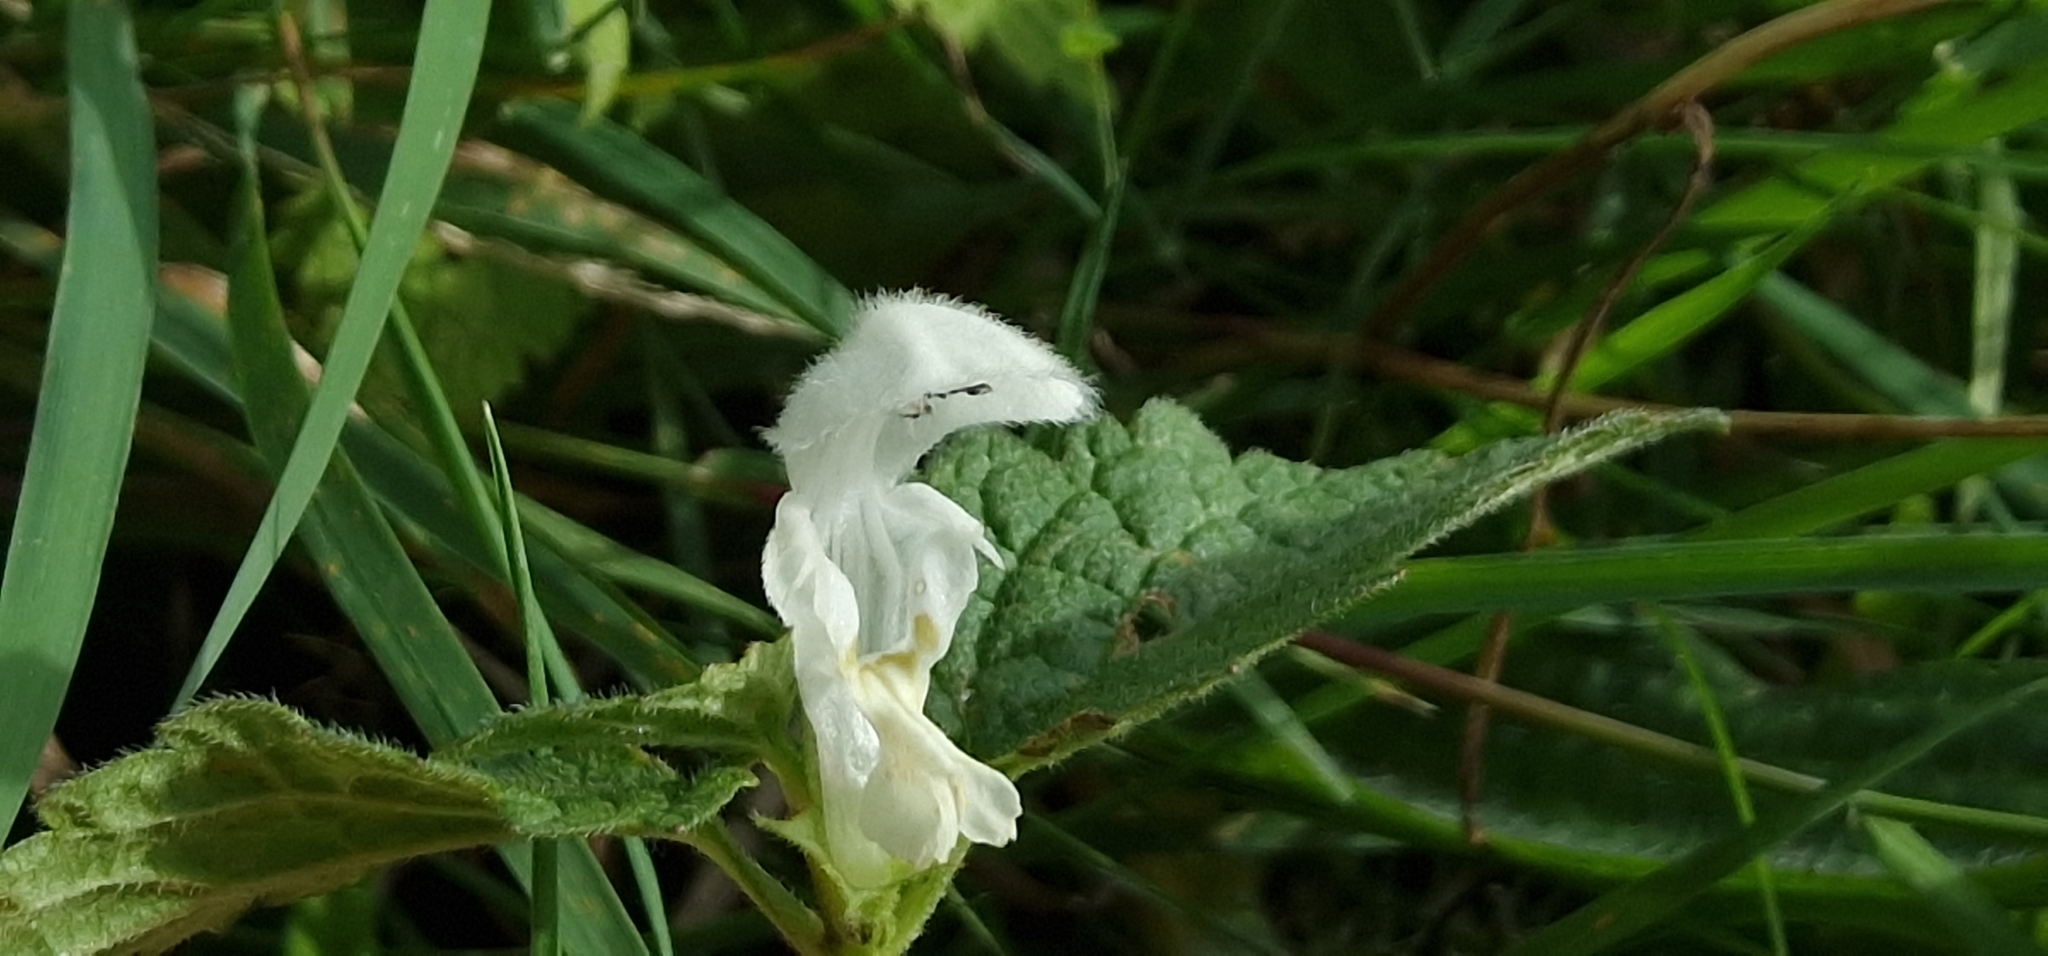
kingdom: Plantae
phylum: Tracheophyta
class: Magnoliopsida
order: Lamiales
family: Lamiaceae
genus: Lamium
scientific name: Lamium album
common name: White dead-nettle
